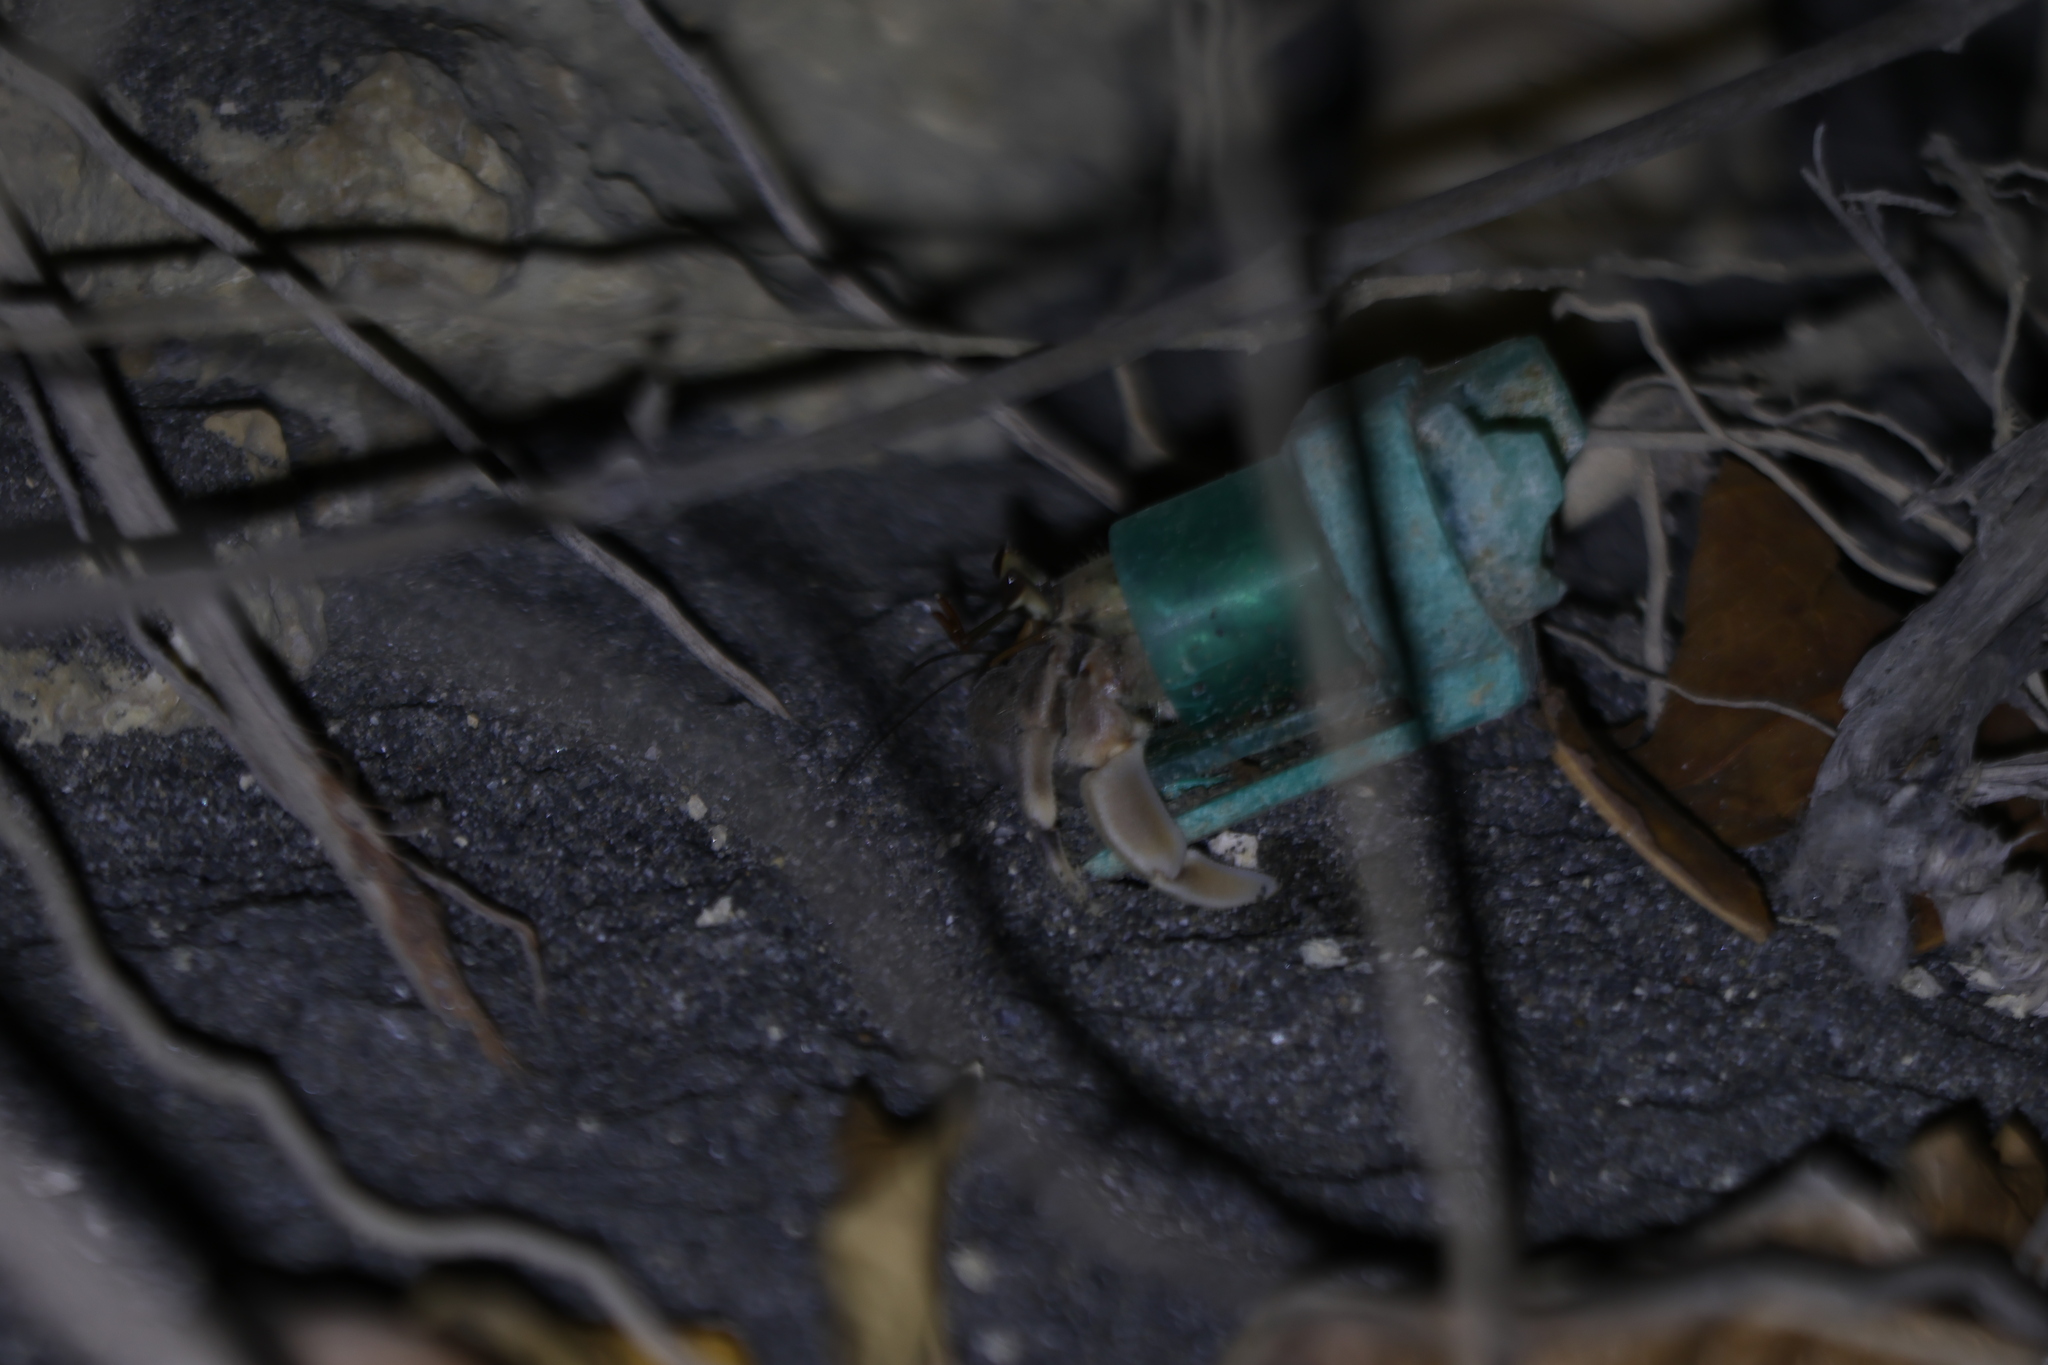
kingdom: Animalia
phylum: Arthropoda
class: Malacostraca
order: Decapoda
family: Coenobitidae
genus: Coenobita
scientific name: Coenobita rugosus
